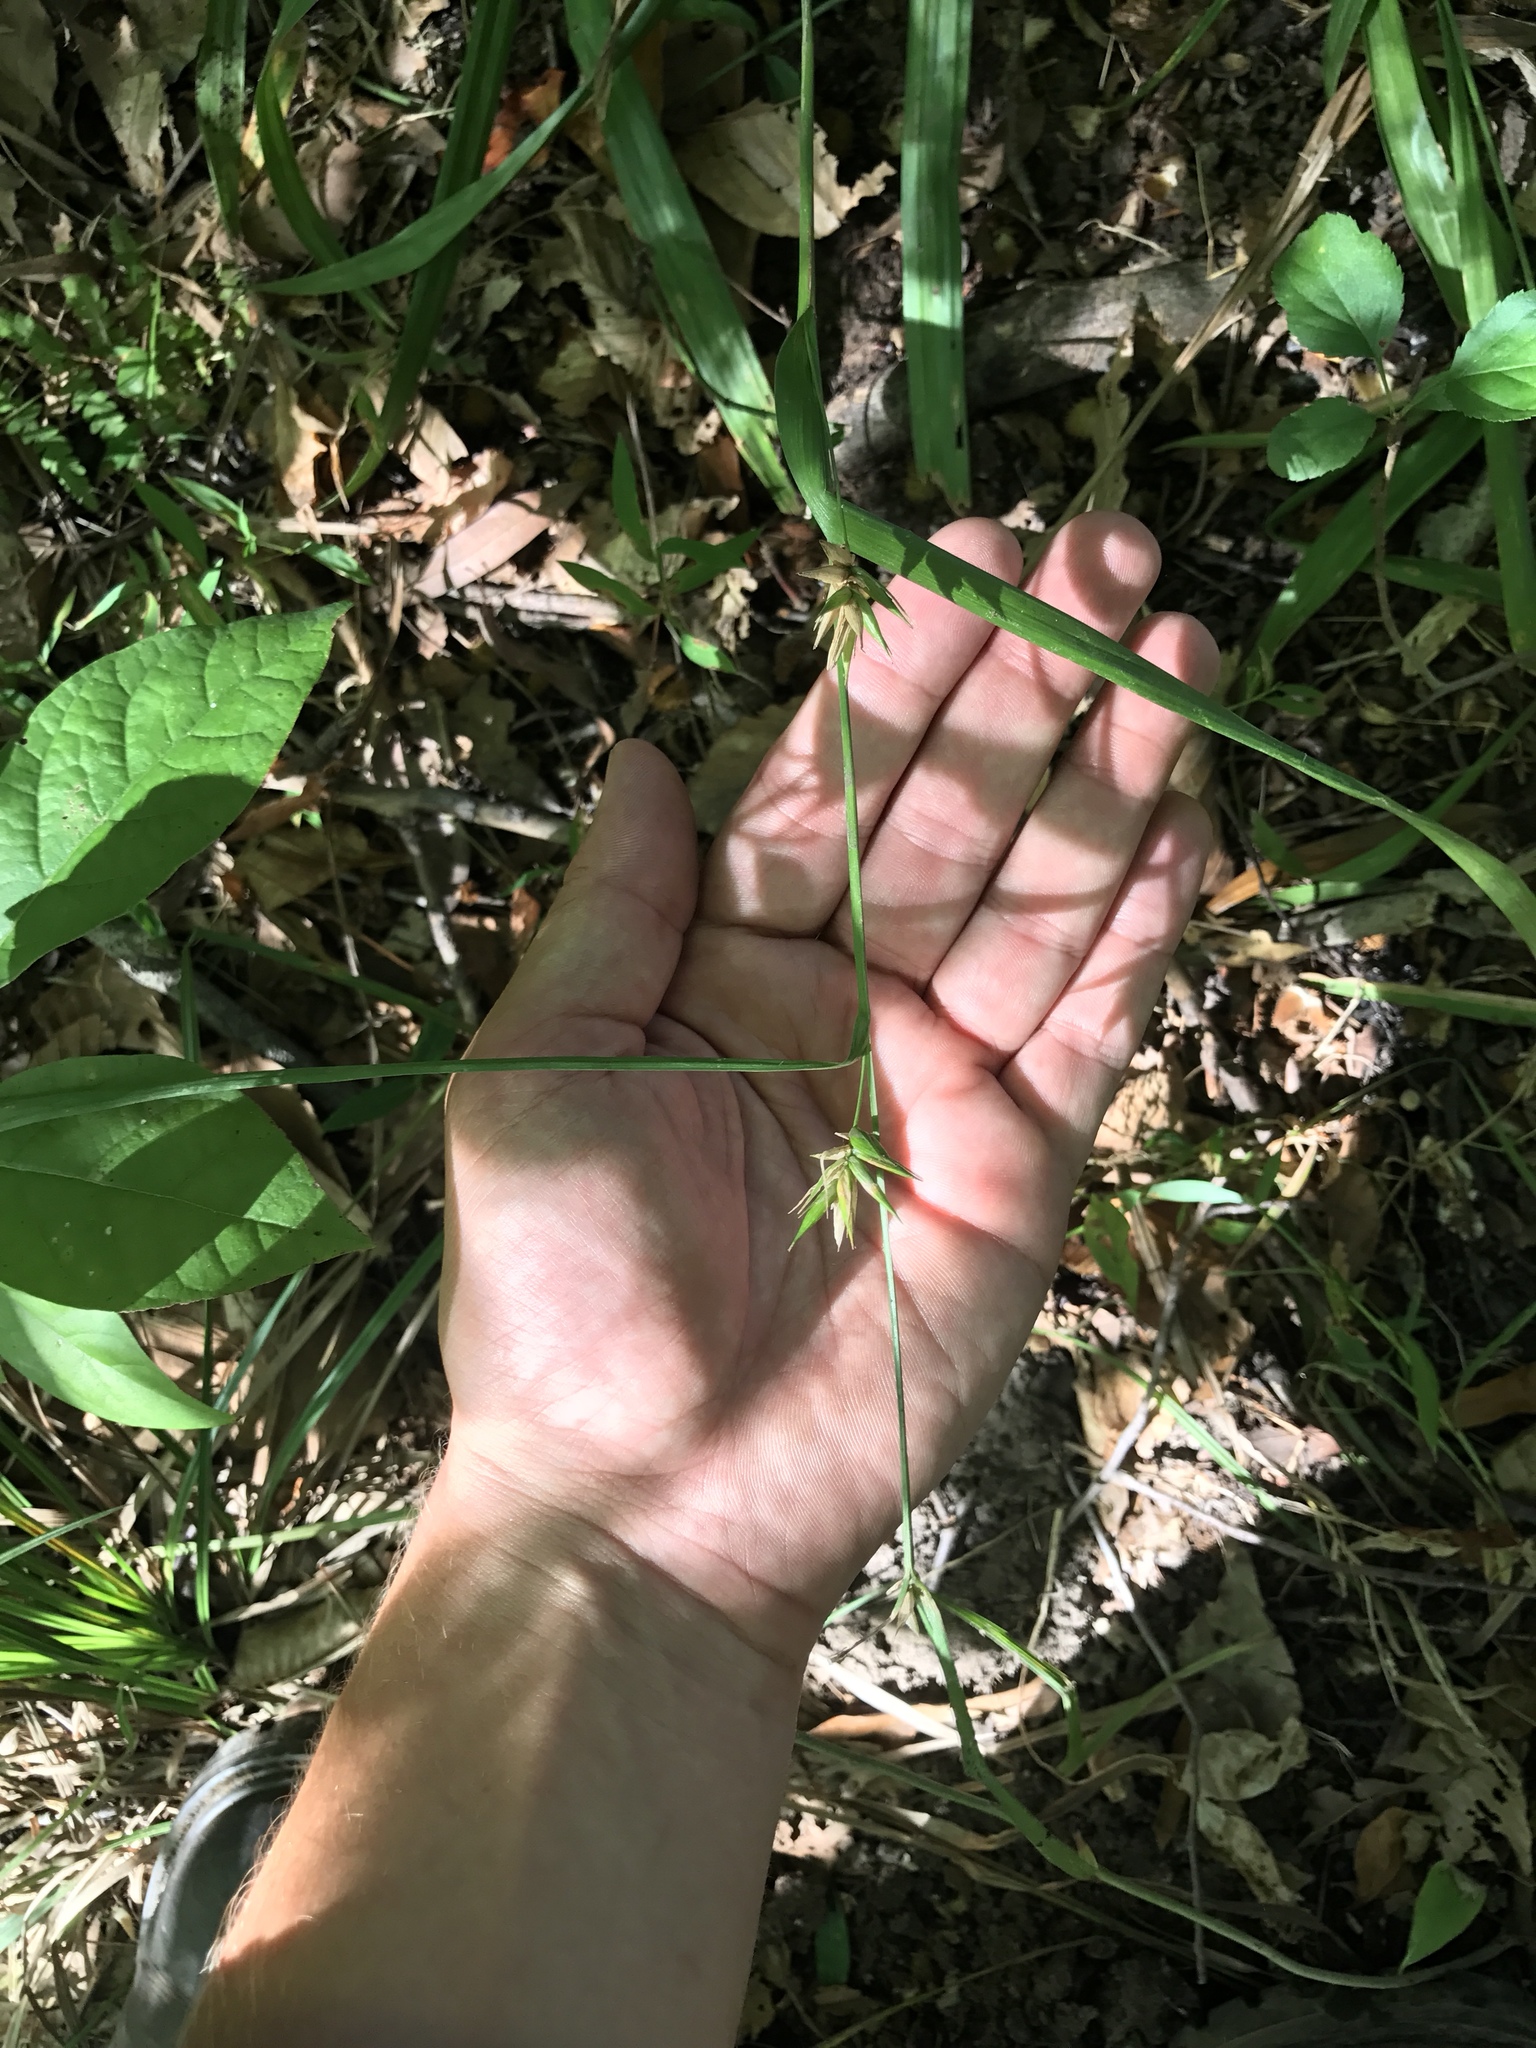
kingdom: Plantae
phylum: Tracheophyta
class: Liliopsida
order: Poales
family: Cyperaceae
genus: Carex
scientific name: Carex folliculata
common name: Northern long sedge
